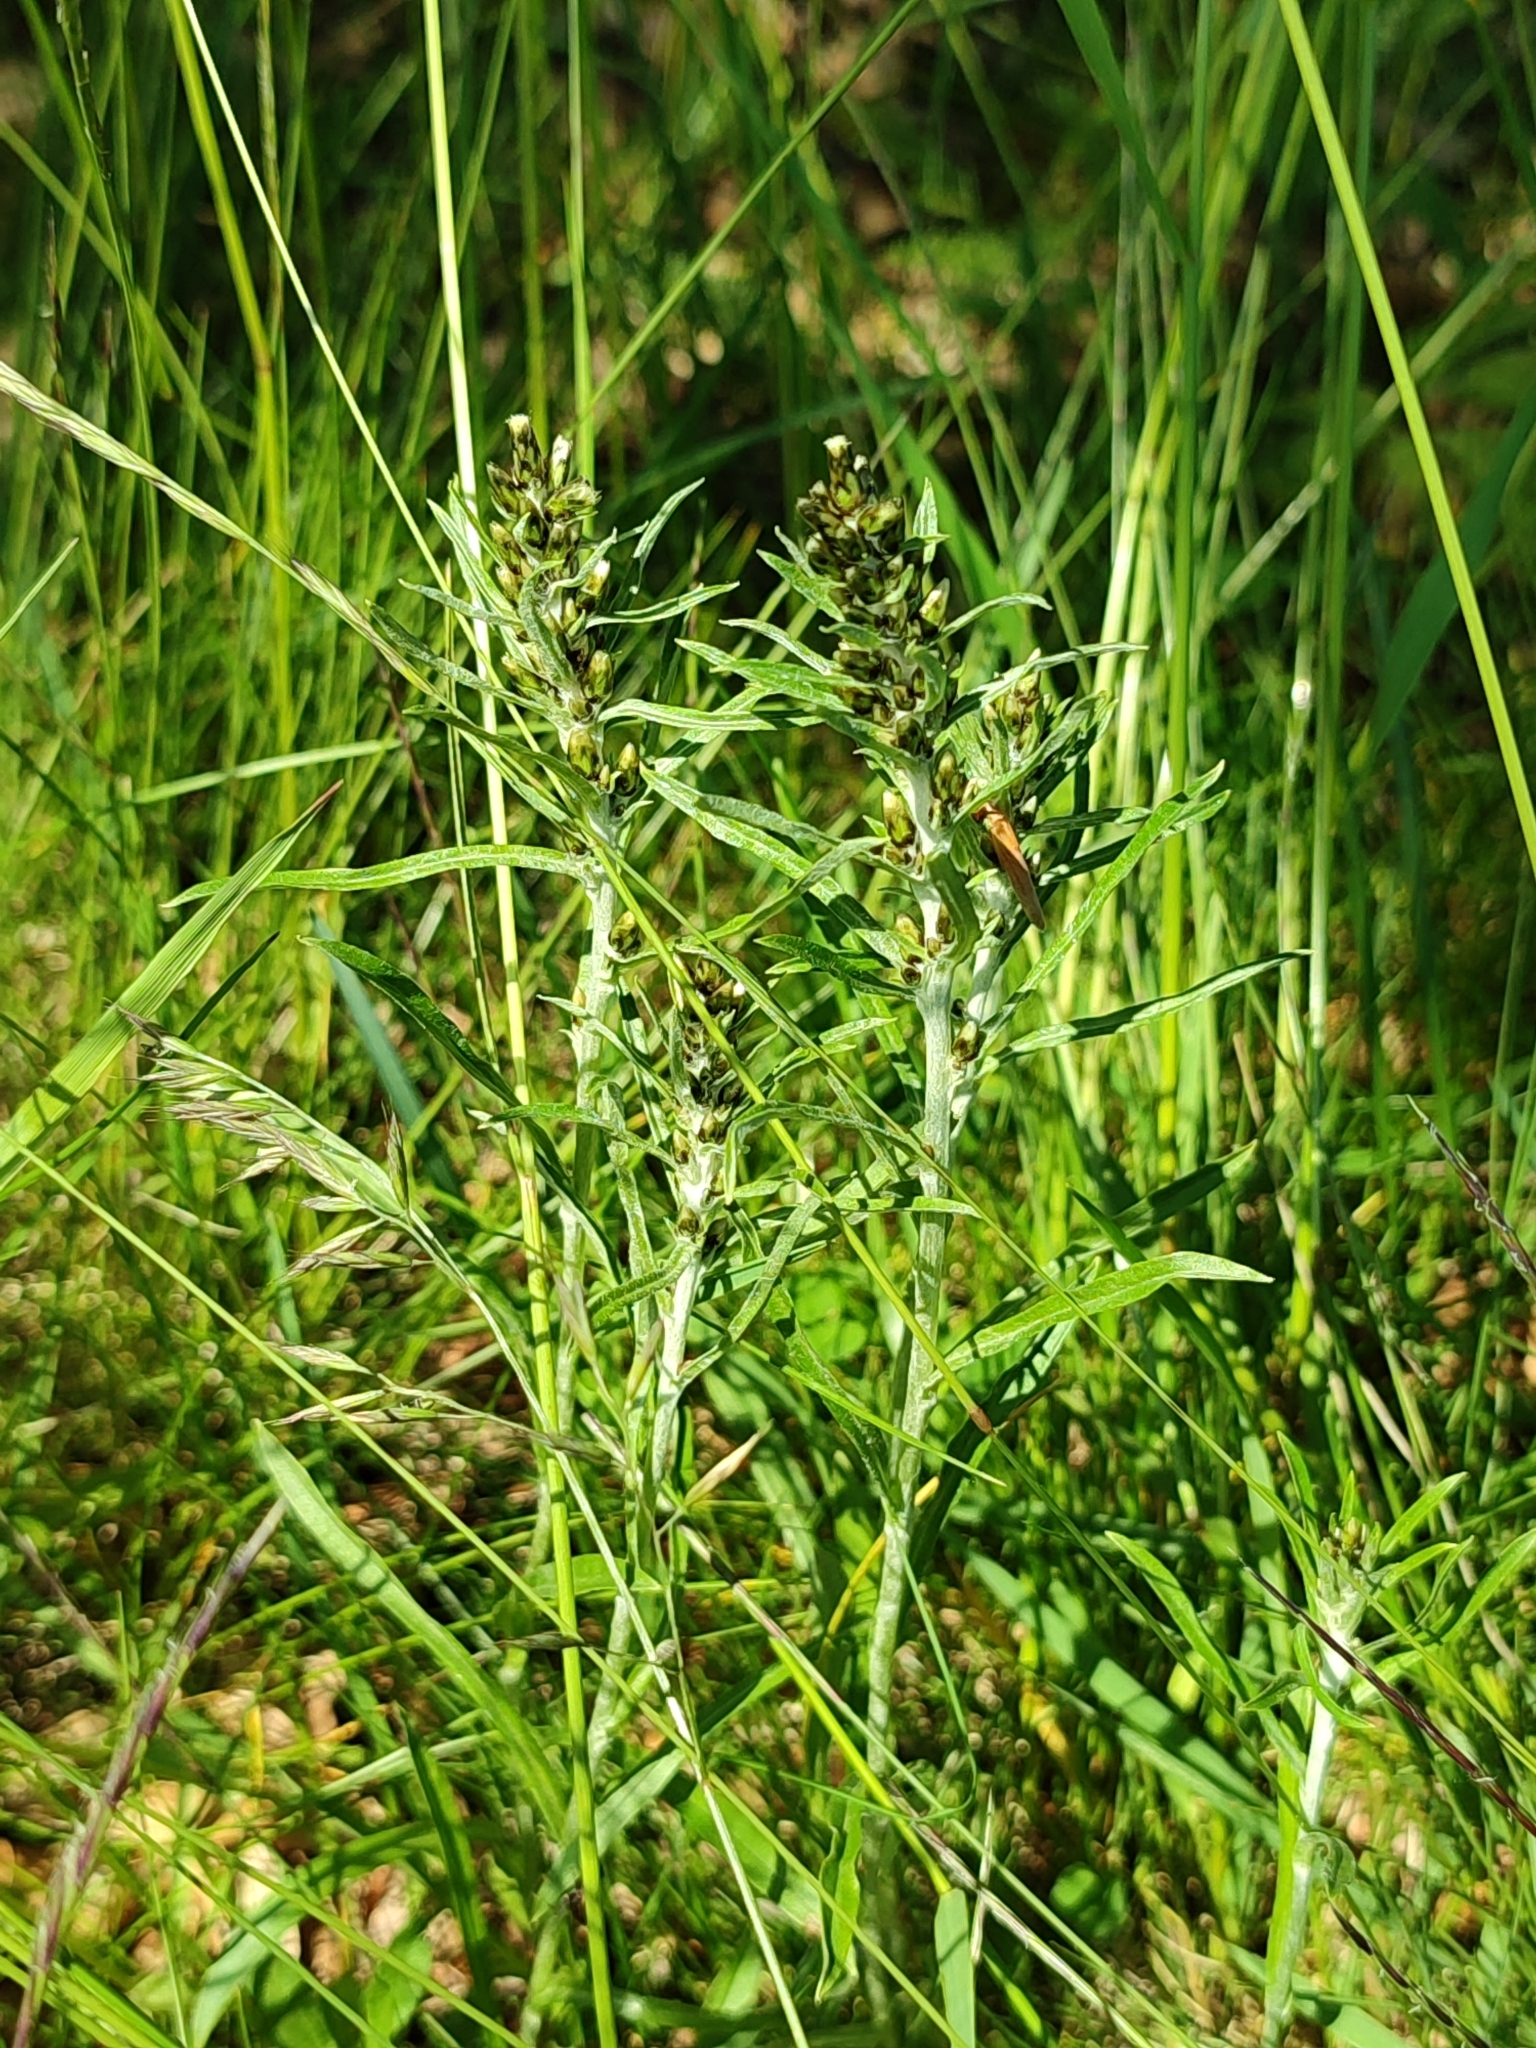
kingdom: Plantae
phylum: Tracheophyta
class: Magnoliopsida
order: Asterales
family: Asteraceae
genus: Omalotheca
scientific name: Omalotheca sylvatica
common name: Heath cudweed
